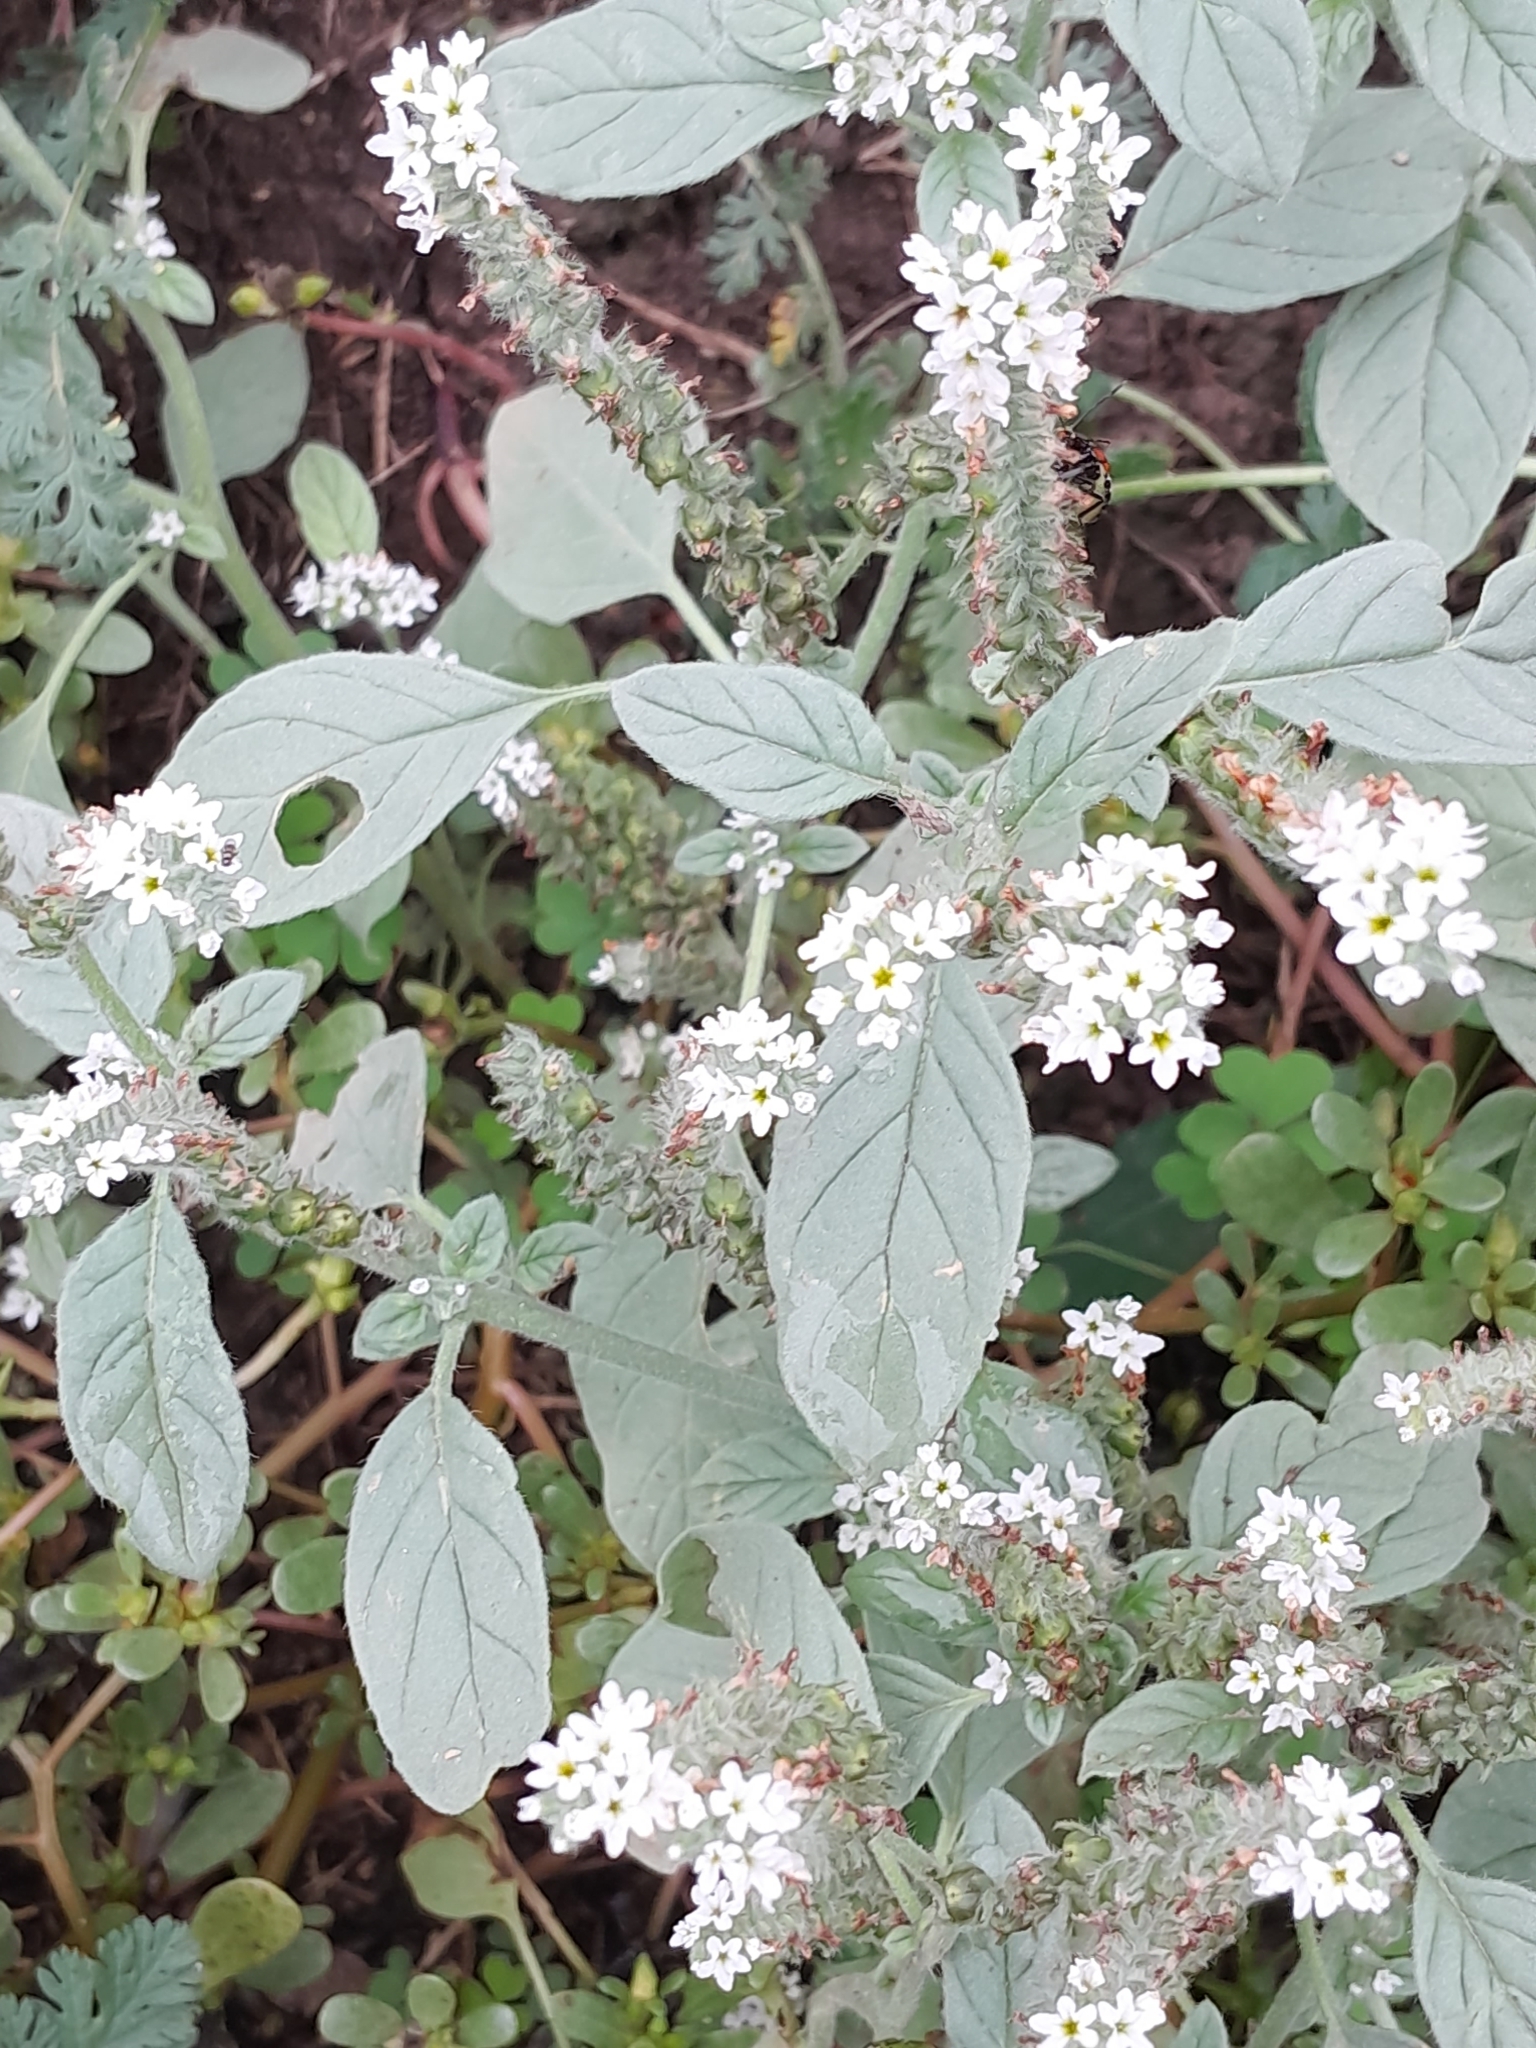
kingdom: Plantae
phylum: Tracheophyta
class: Magnoliopsida
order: Boraginales
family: Heliotropiaceae
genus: Heliotropium
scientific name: Heliotropium europaeum
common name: European heliotrope
